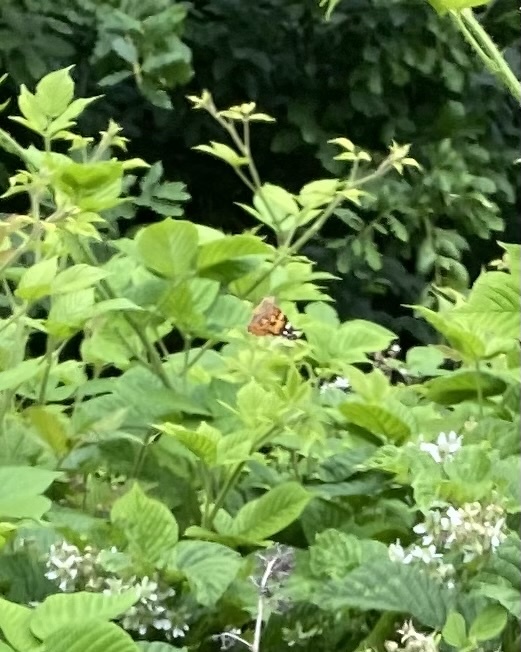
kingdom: Animalia
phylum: Arthropoda
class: Insecta
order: Lepidoptera
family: Nymphalidae
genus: Vanessa
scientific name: Vanessa cardui
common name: Painted lady
